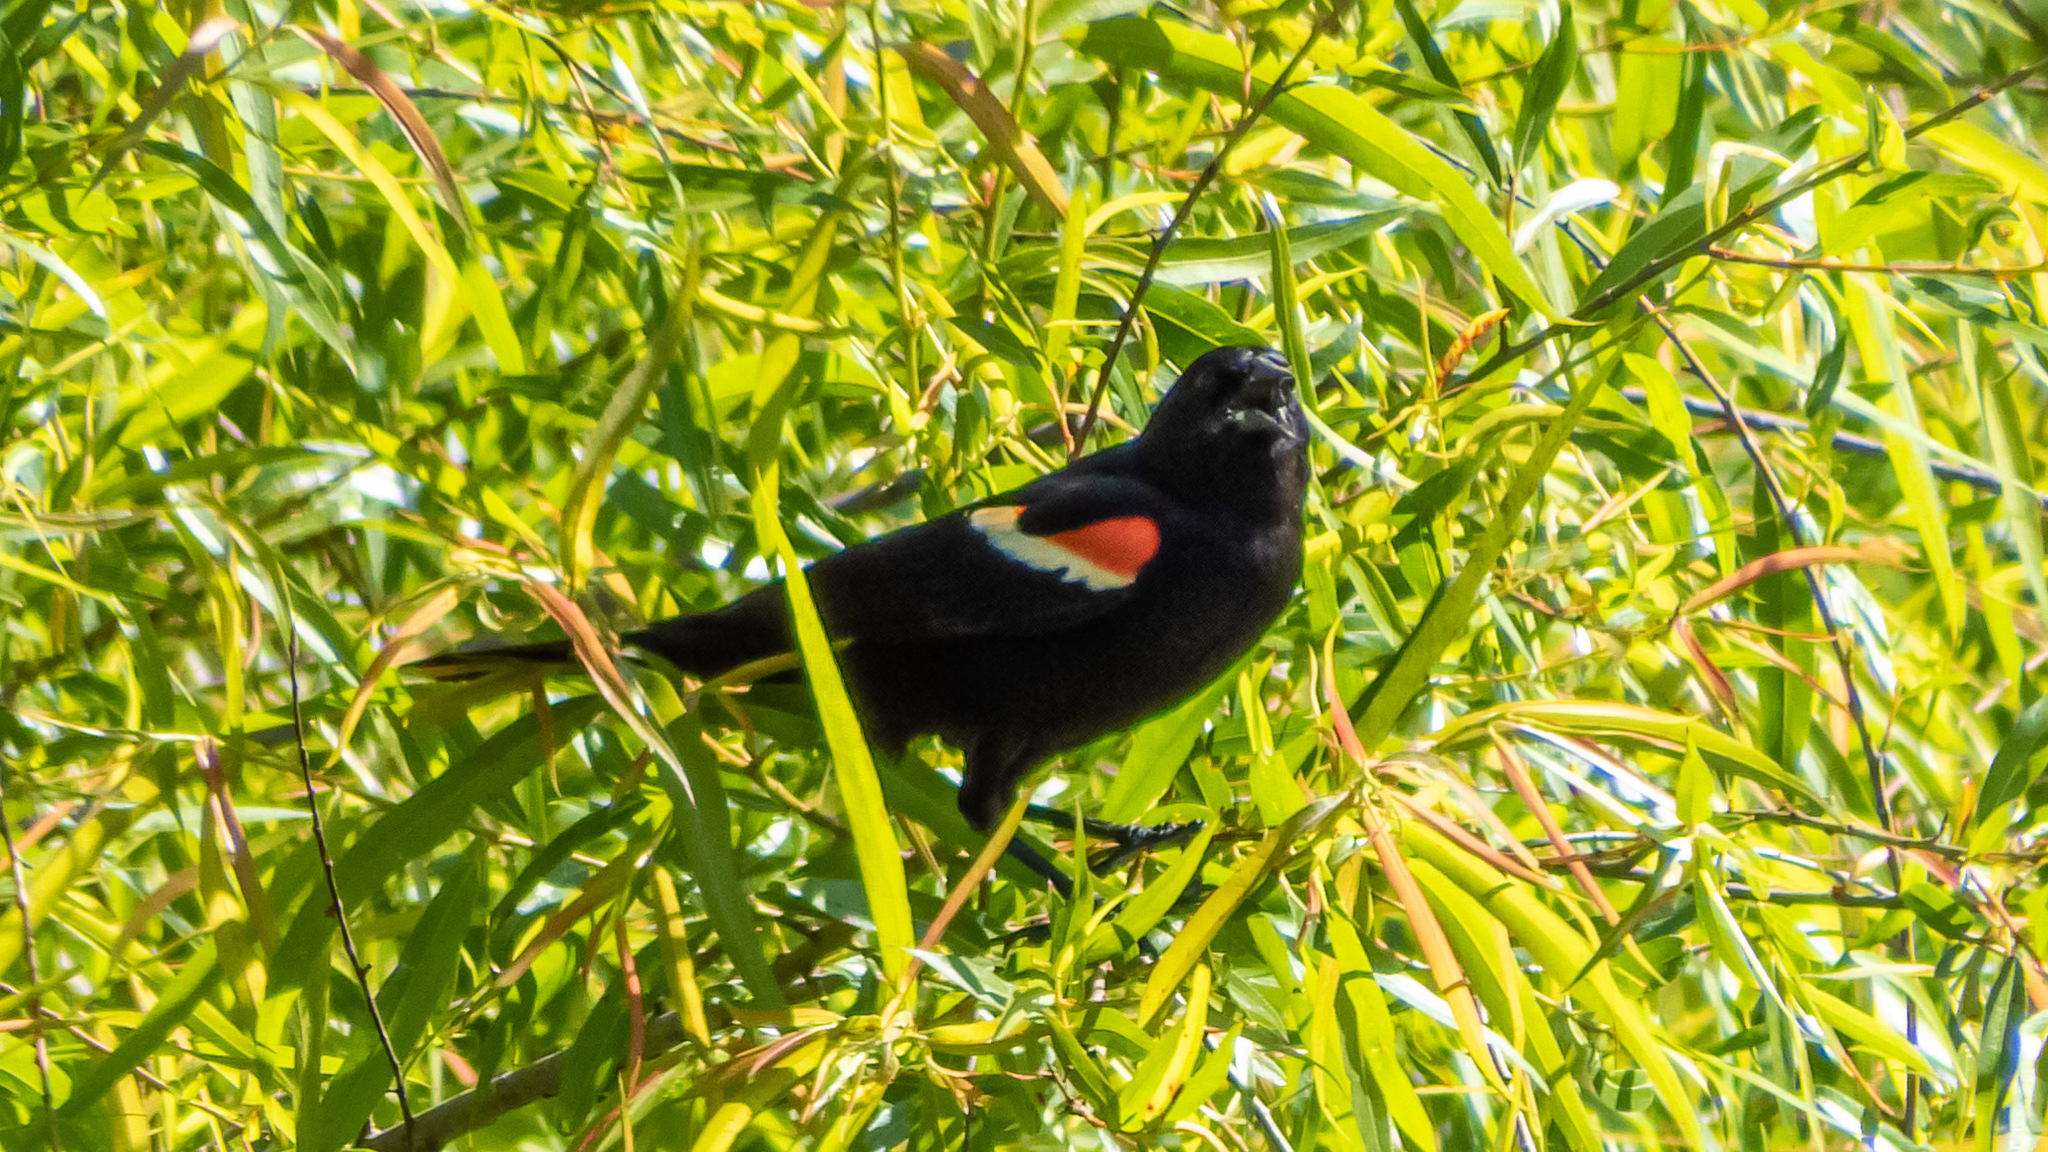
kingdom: Animalia
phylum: Chordata
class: Aves
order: Passeriformes
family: Icteridae
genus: Agelaius
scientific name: Agelaius phoeniceus
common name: Red-winged blackbird
